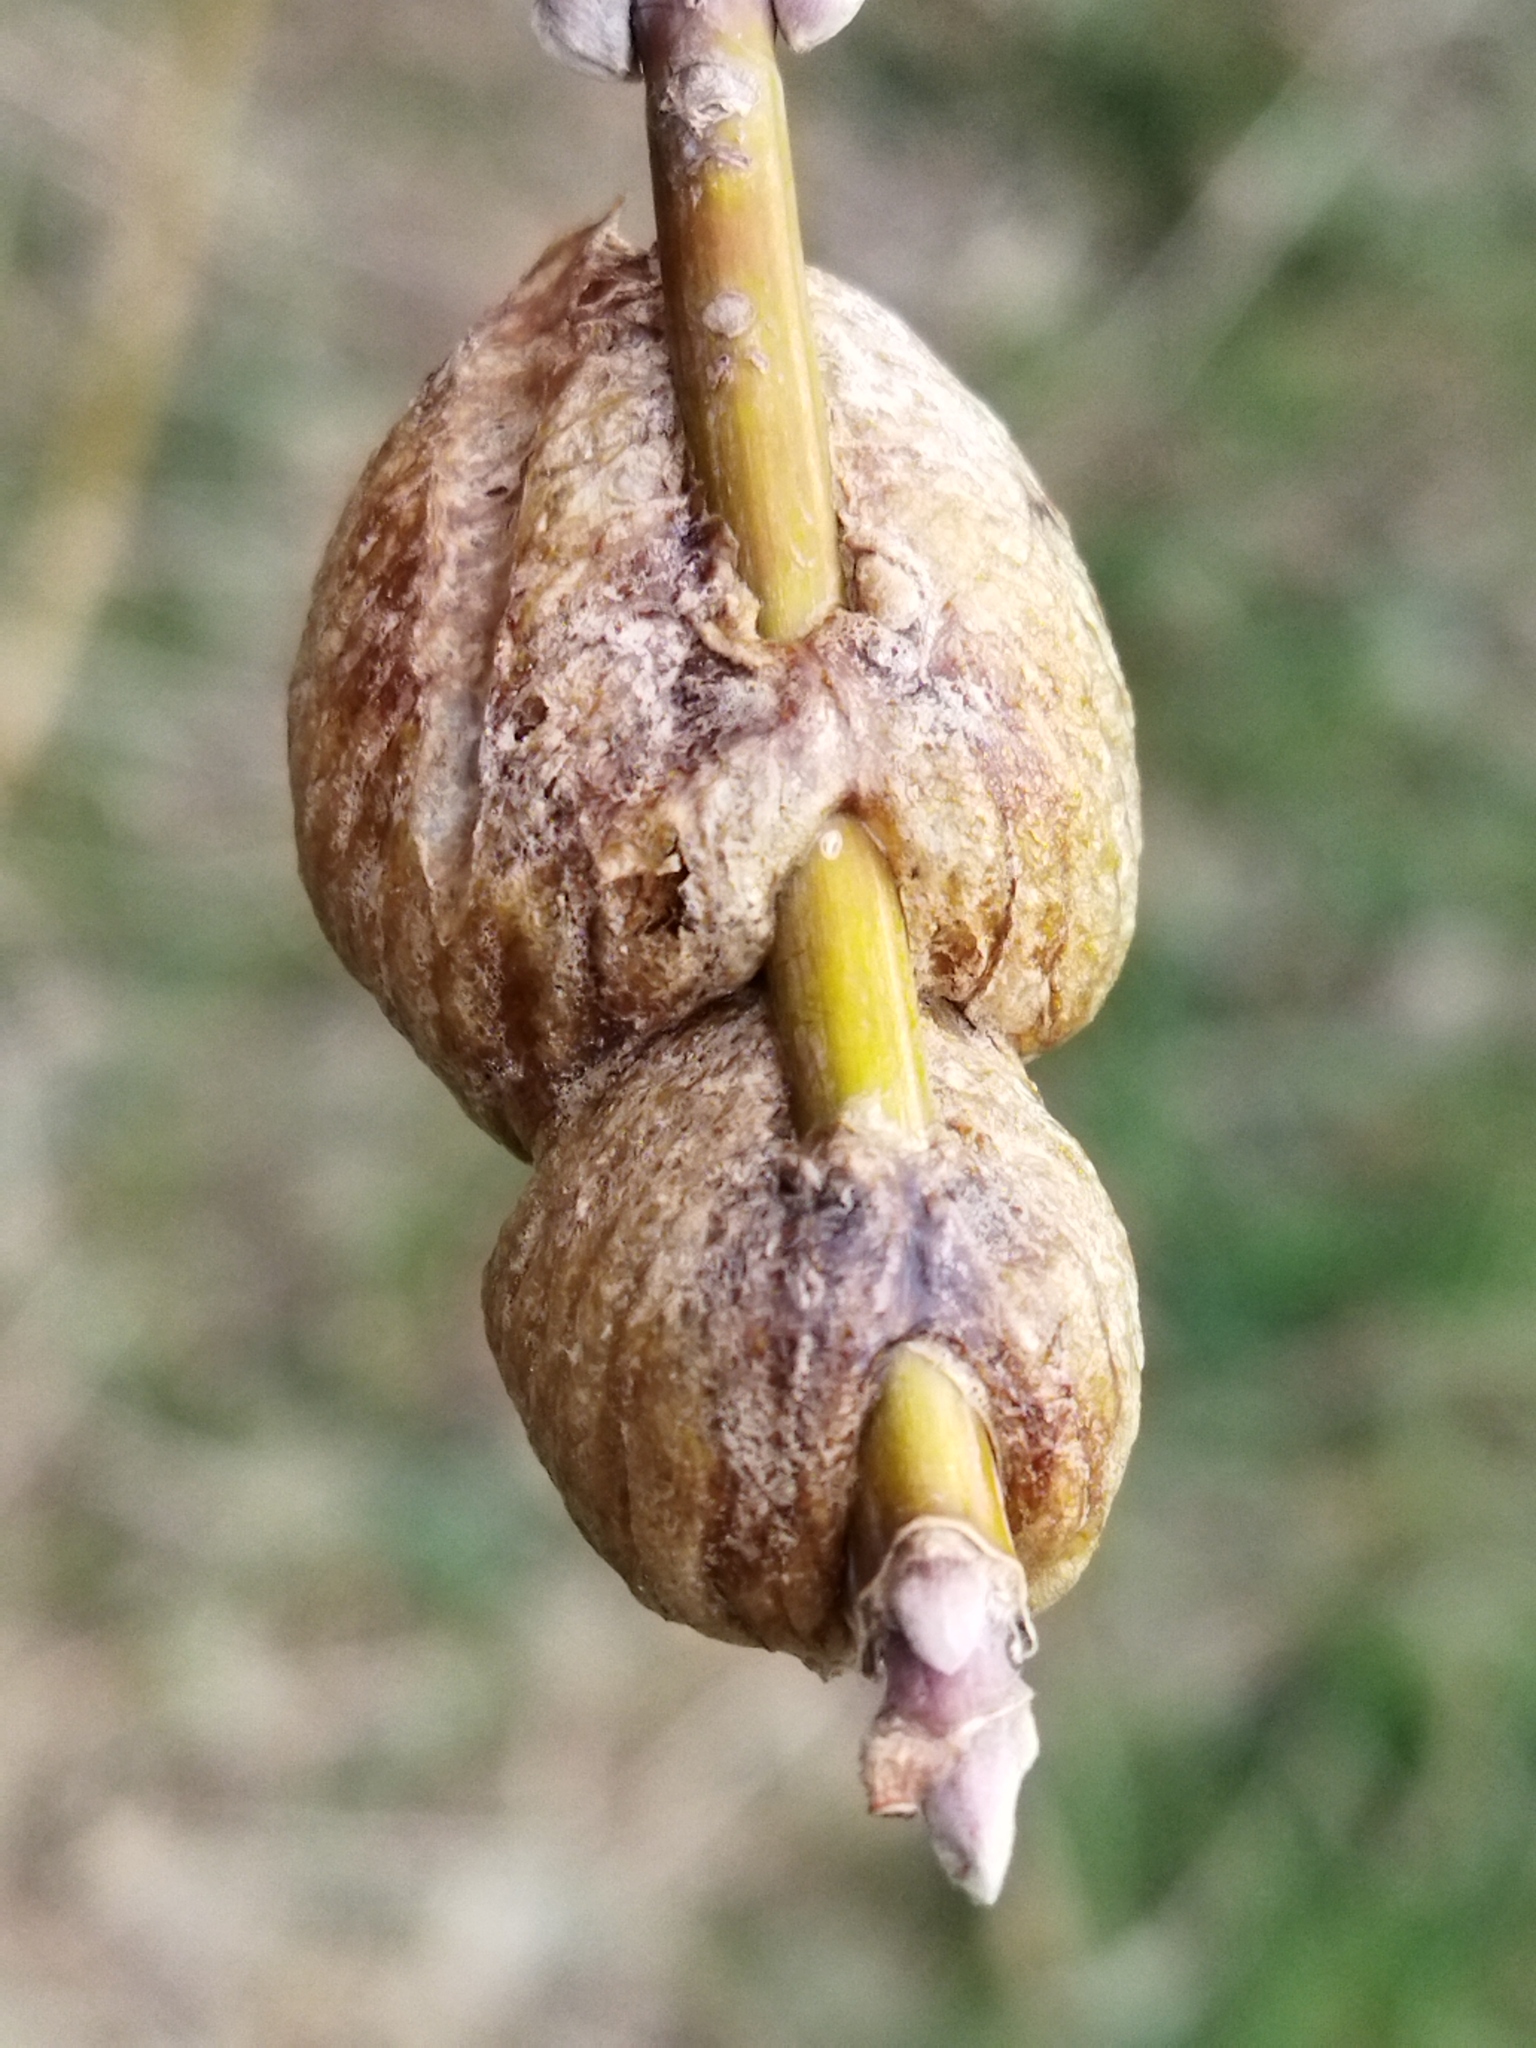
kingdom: Animalia
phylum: Arthropoda
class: Insecta
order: Mantodea
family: Mantidae
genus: Hierodula
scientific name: Hierodula transcaucasica
